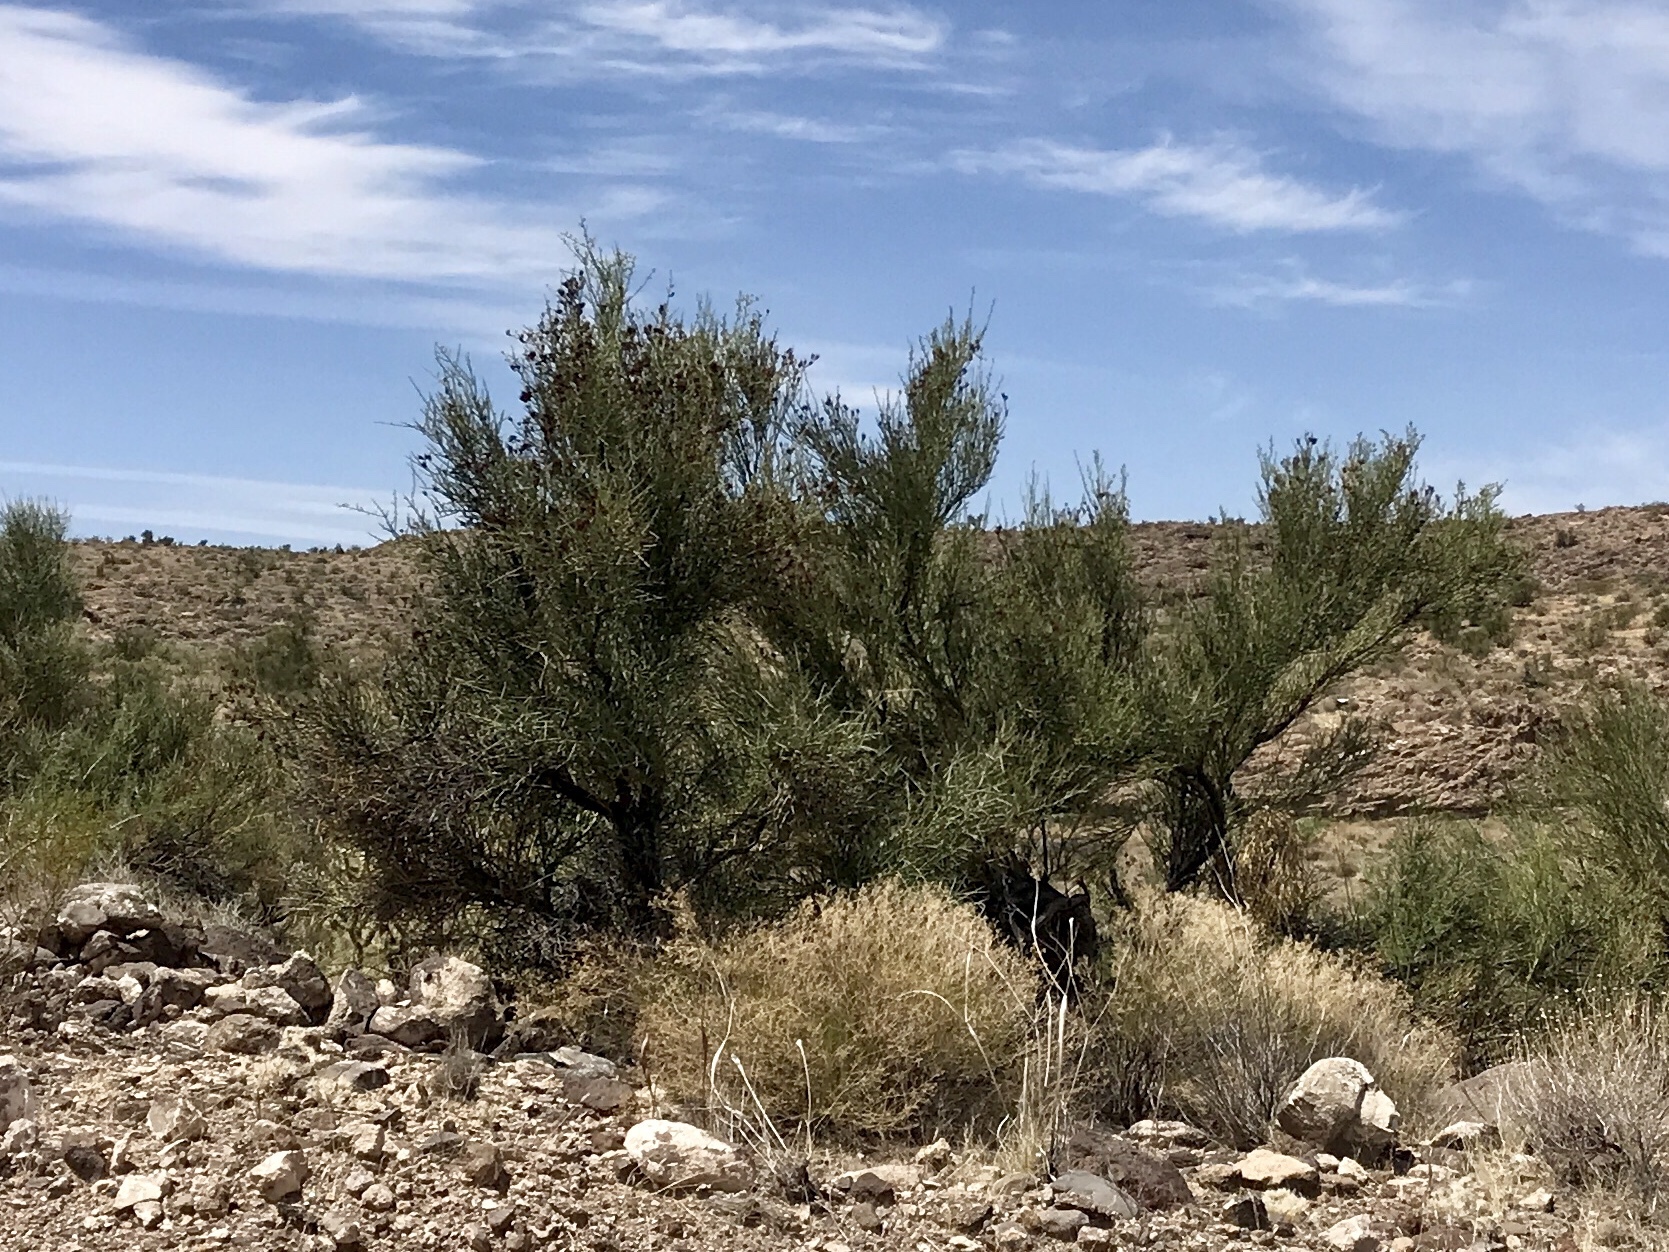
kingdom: Plantae
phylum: Tracheophyta
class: Magnoliopsida
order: Celastrales
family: Celastraceae
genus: Canotia
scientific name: Canotia holacantha
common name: Crucifixion thorns
